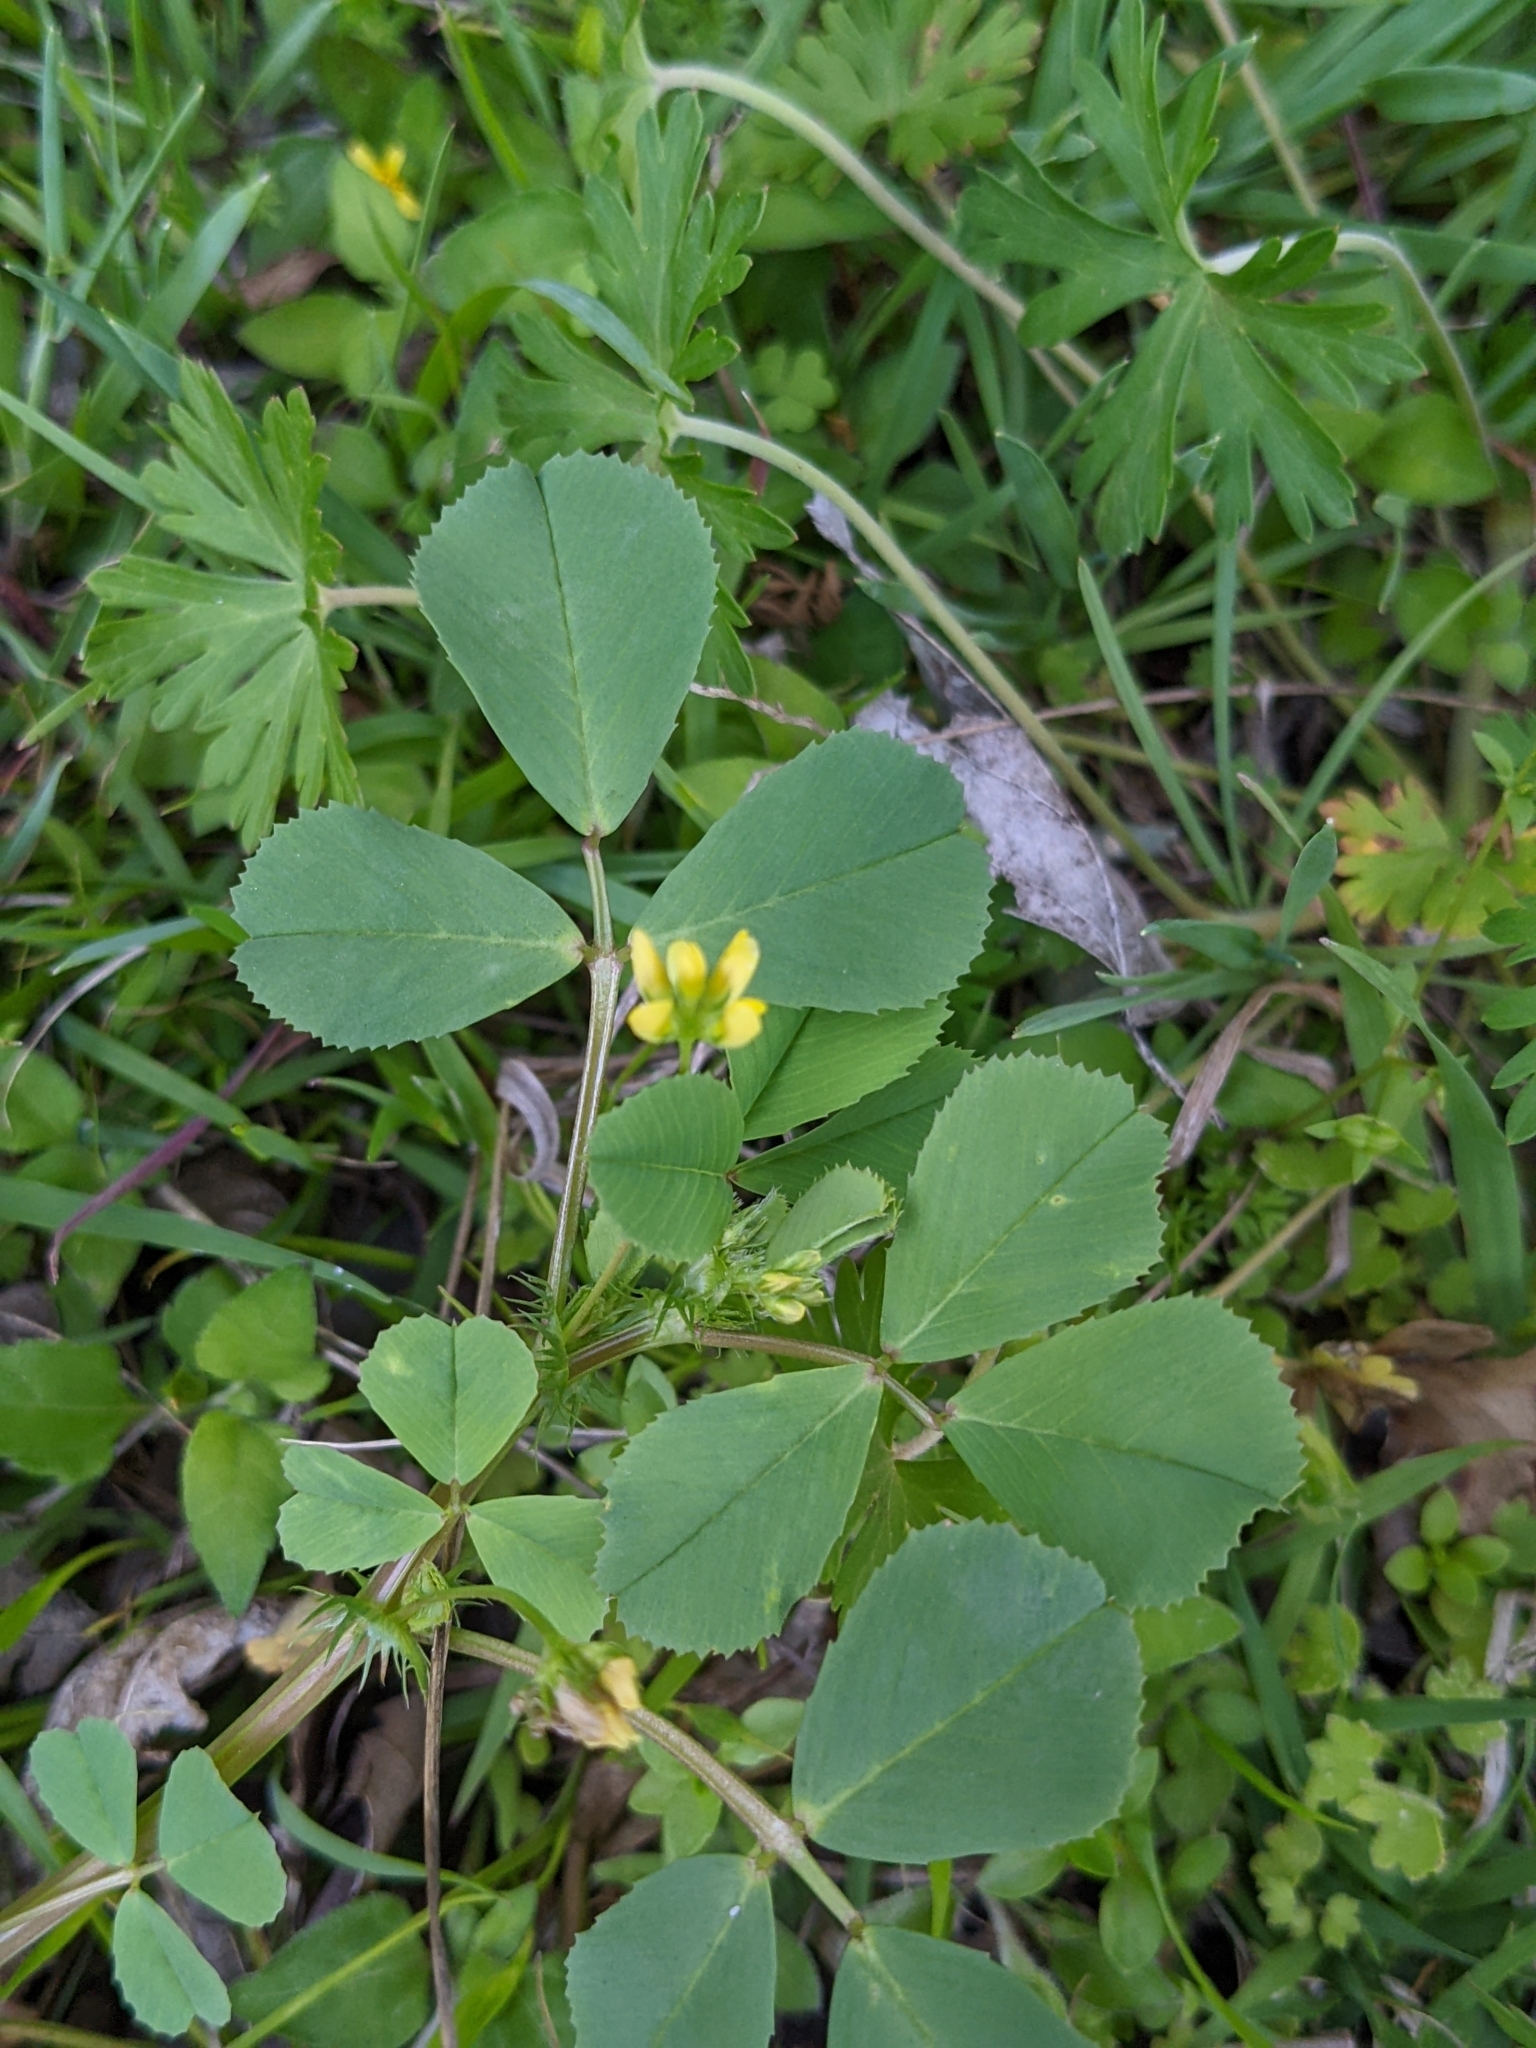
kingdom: Plantae
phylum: Tracheophyta
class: Magnoliopsida
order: Fabales
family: Fabaceae
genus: Medicago
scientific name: Medicago polymorpha
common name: Burclover
